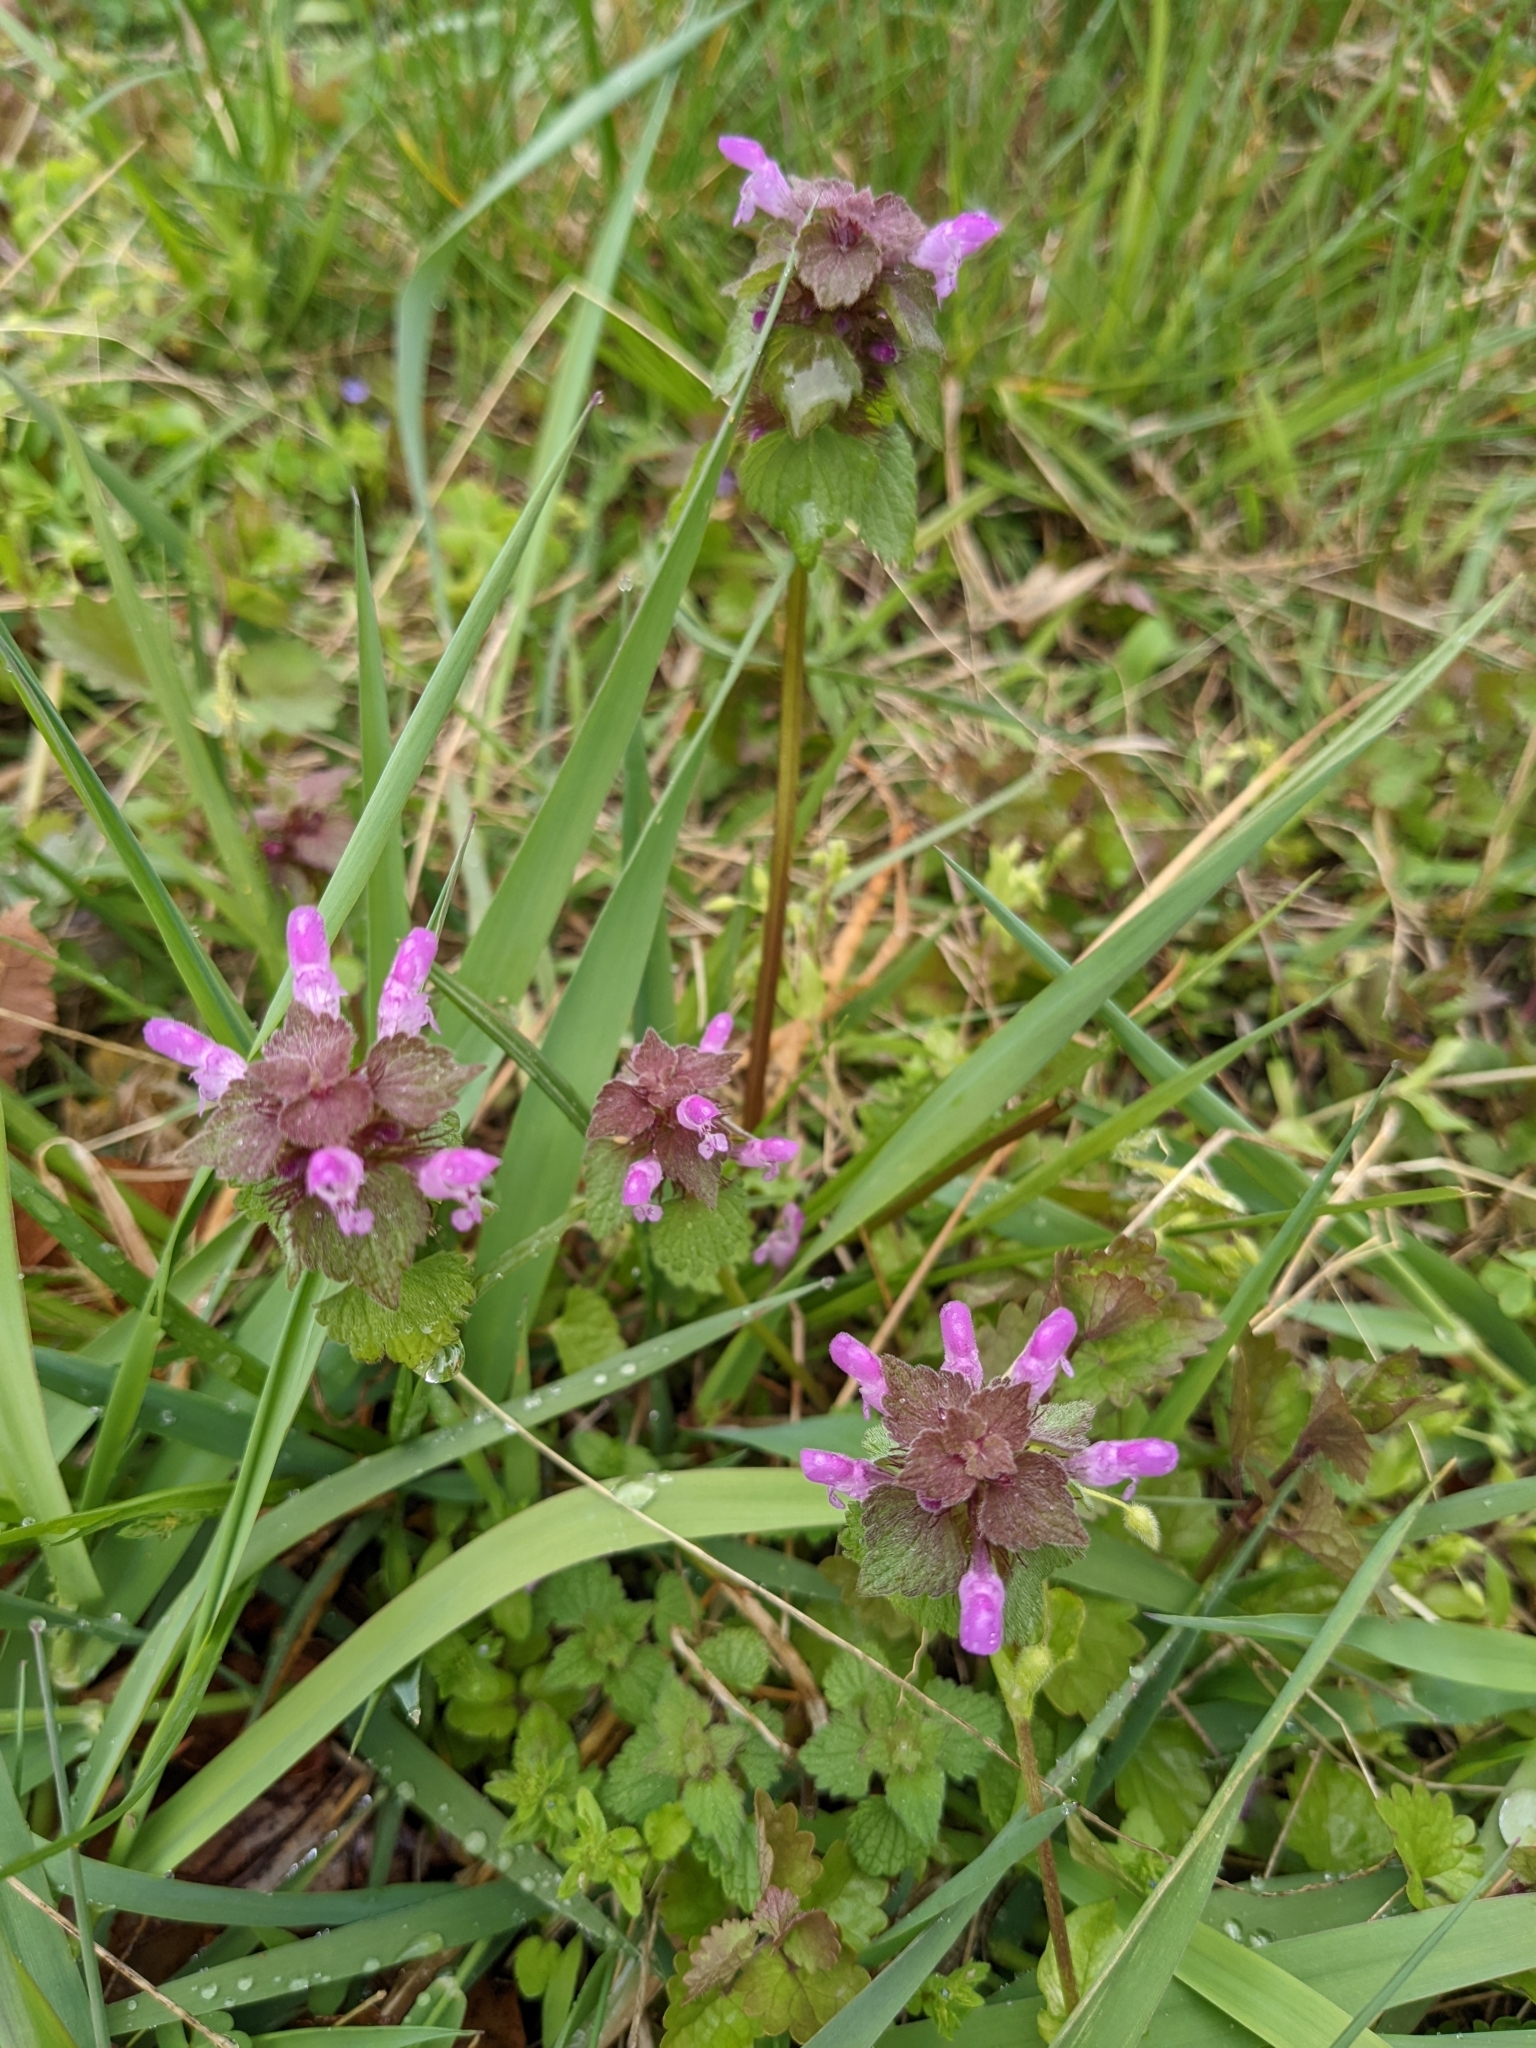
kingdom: Plantae
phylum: Tracheophyta
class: Magnoliopsida
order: Lamiales
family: Lamiaceae
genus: Lamium
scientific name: Lamium purpureum
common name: Red dead-nettle
